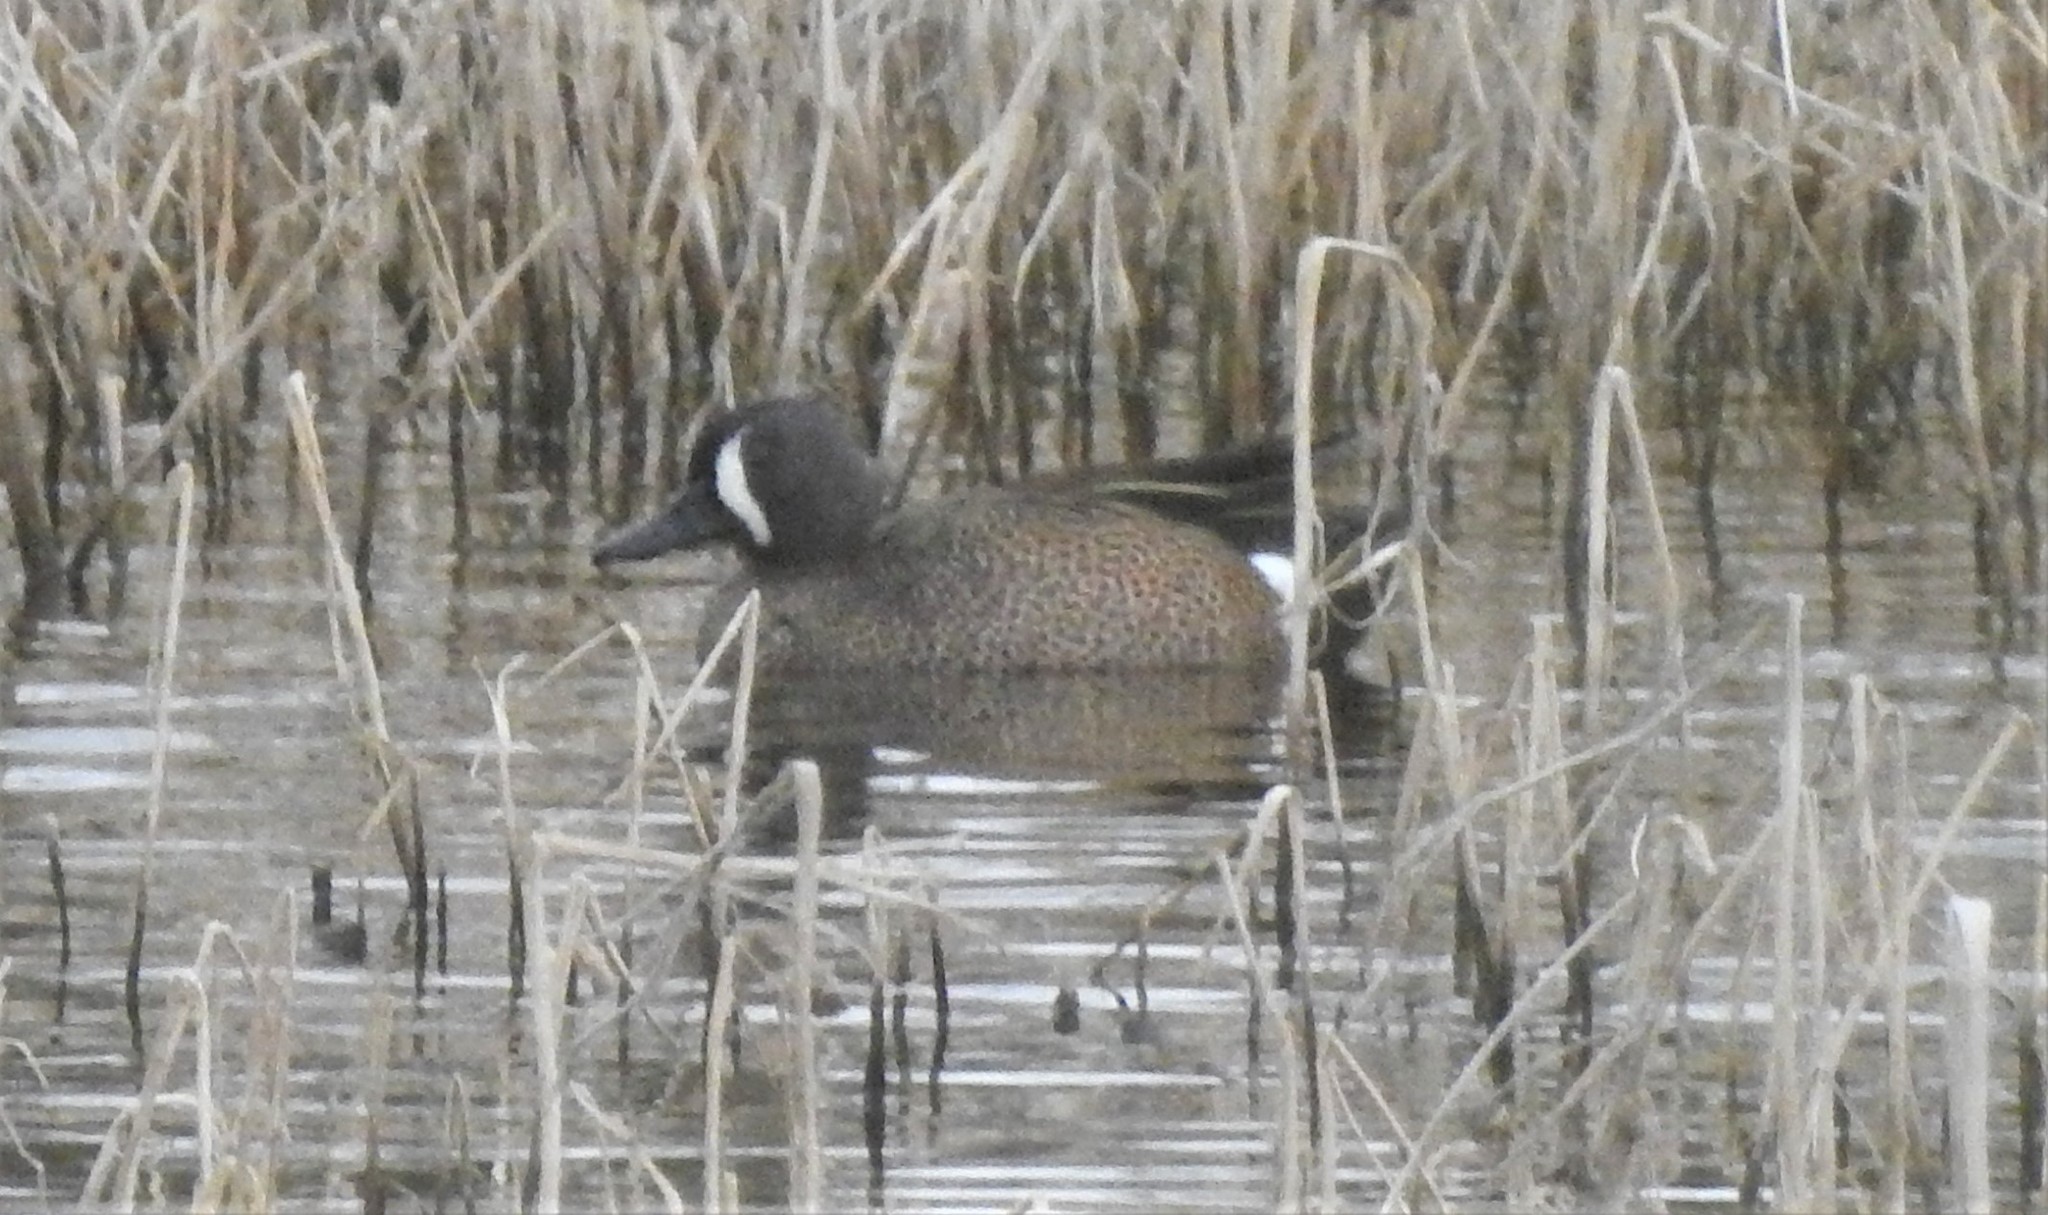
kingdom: Animalia
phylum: Chordata
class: Aves
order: Anseriformes
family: Anatidae
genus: Spatula
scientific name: Spatula discors
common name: Blue-winged teal
